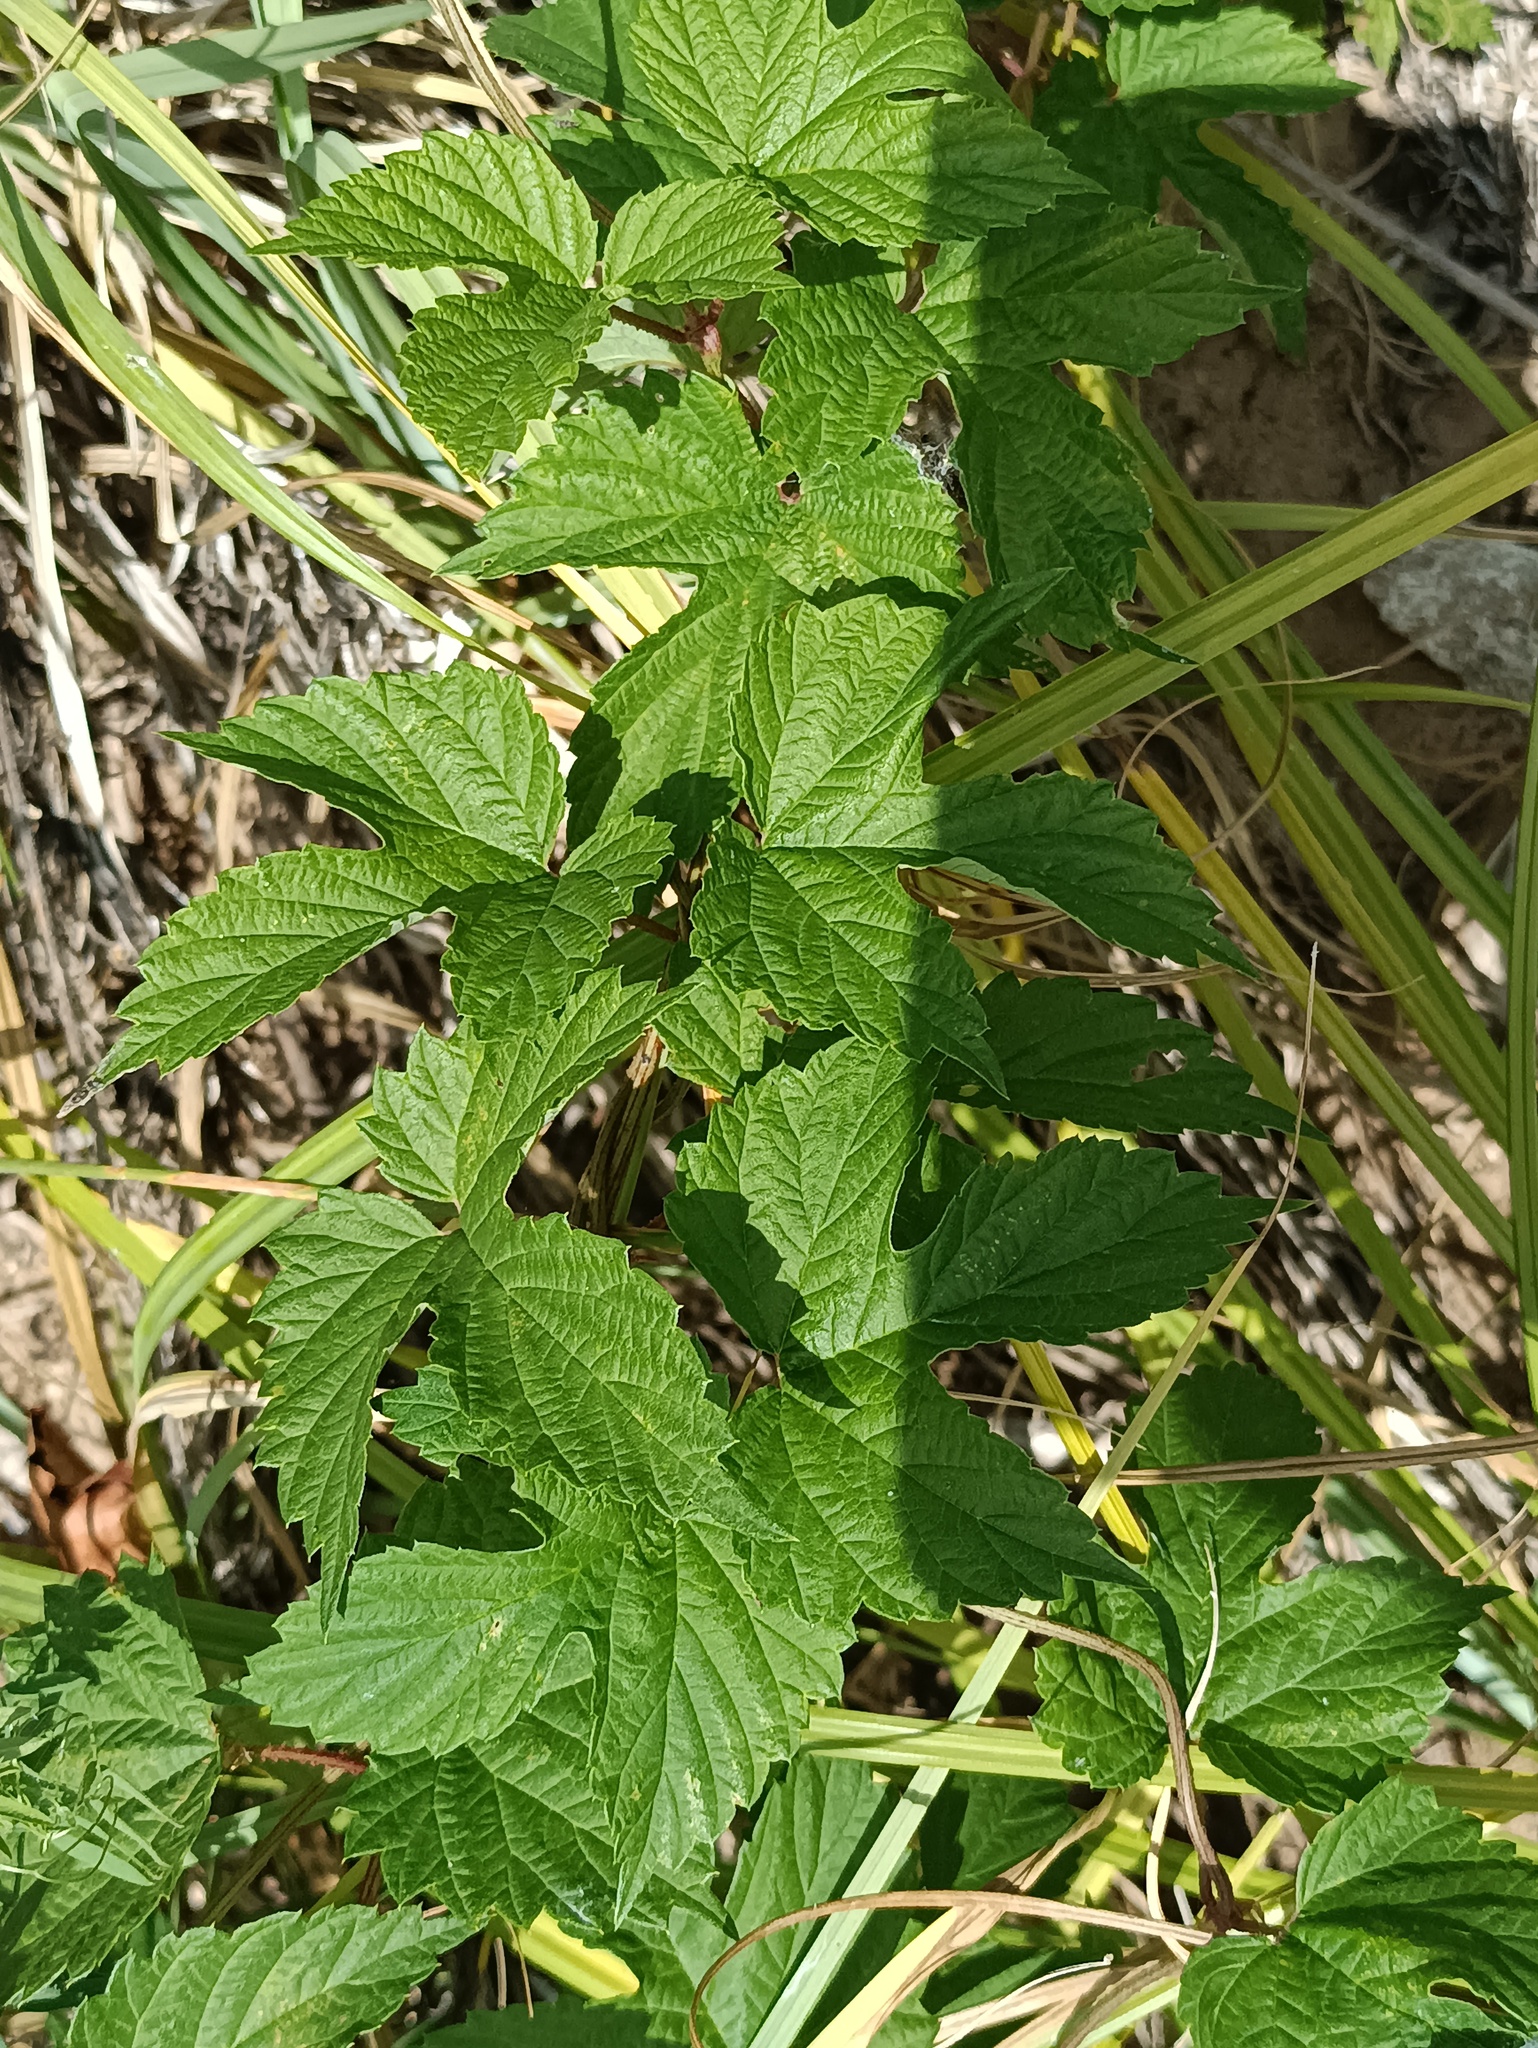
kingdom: Plantae
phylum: Tracheophyta
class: Magnoliopsida
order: Rosales
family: Cannabaceae
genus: Humulus
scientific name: Humulus lupulus
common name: Hop
